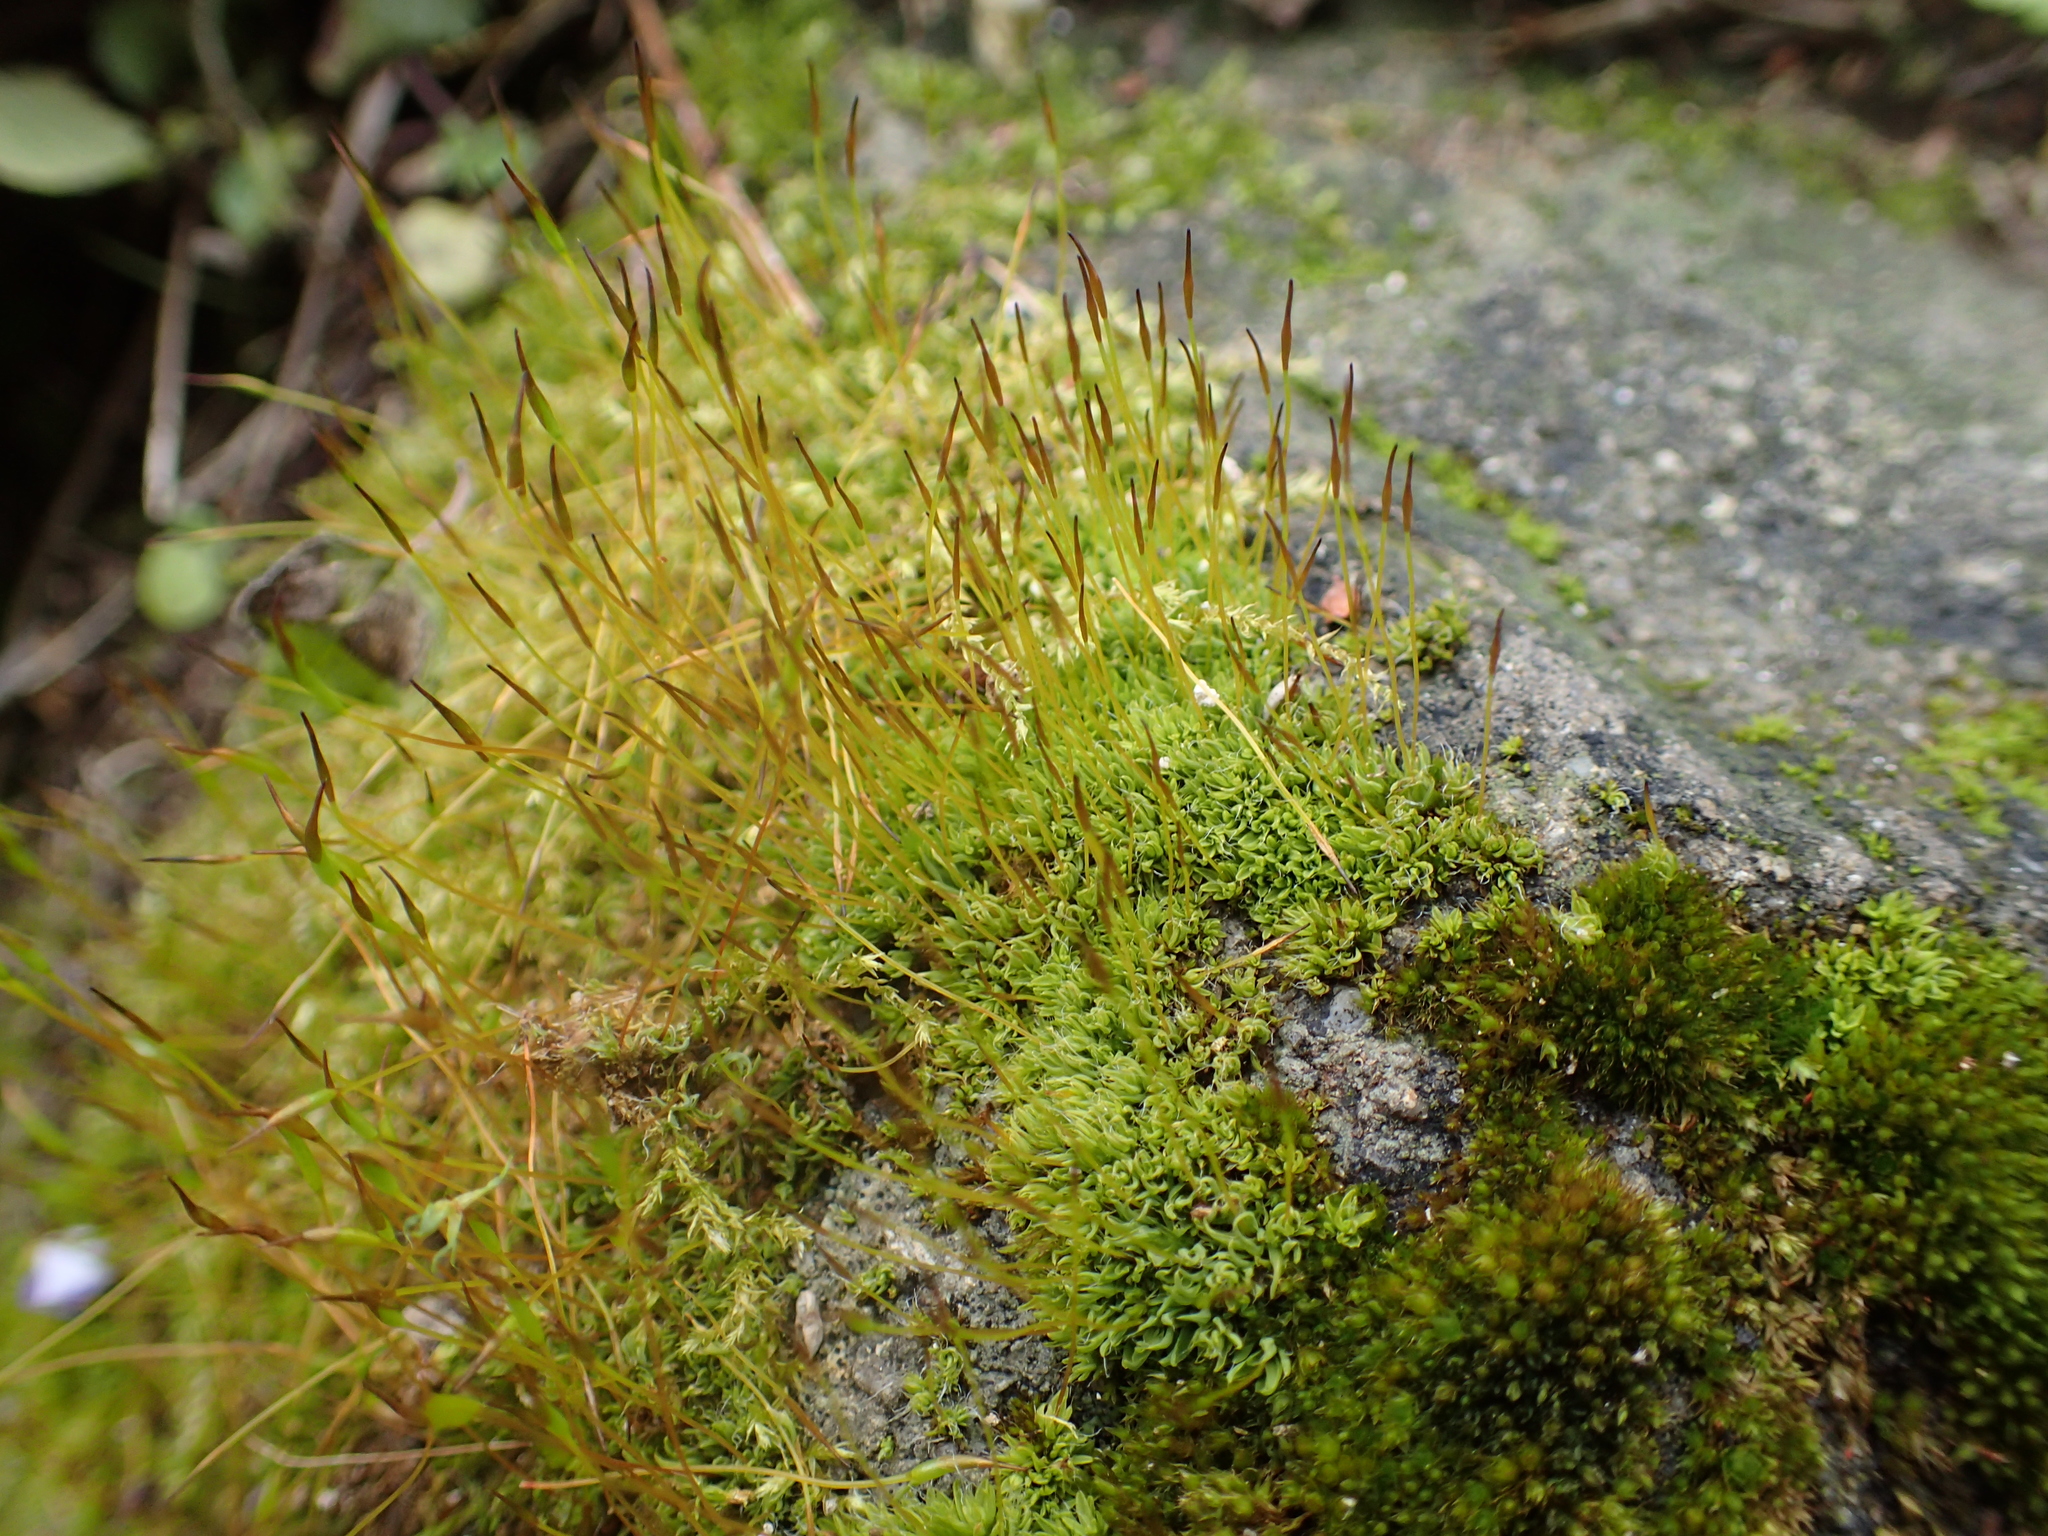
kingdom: Plantae
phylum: Bryophyta
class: Bryopsida
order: Pottiales
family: Pottiaceae
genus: Tortula
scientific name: Tortula muralis
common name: Wall screw-moss
